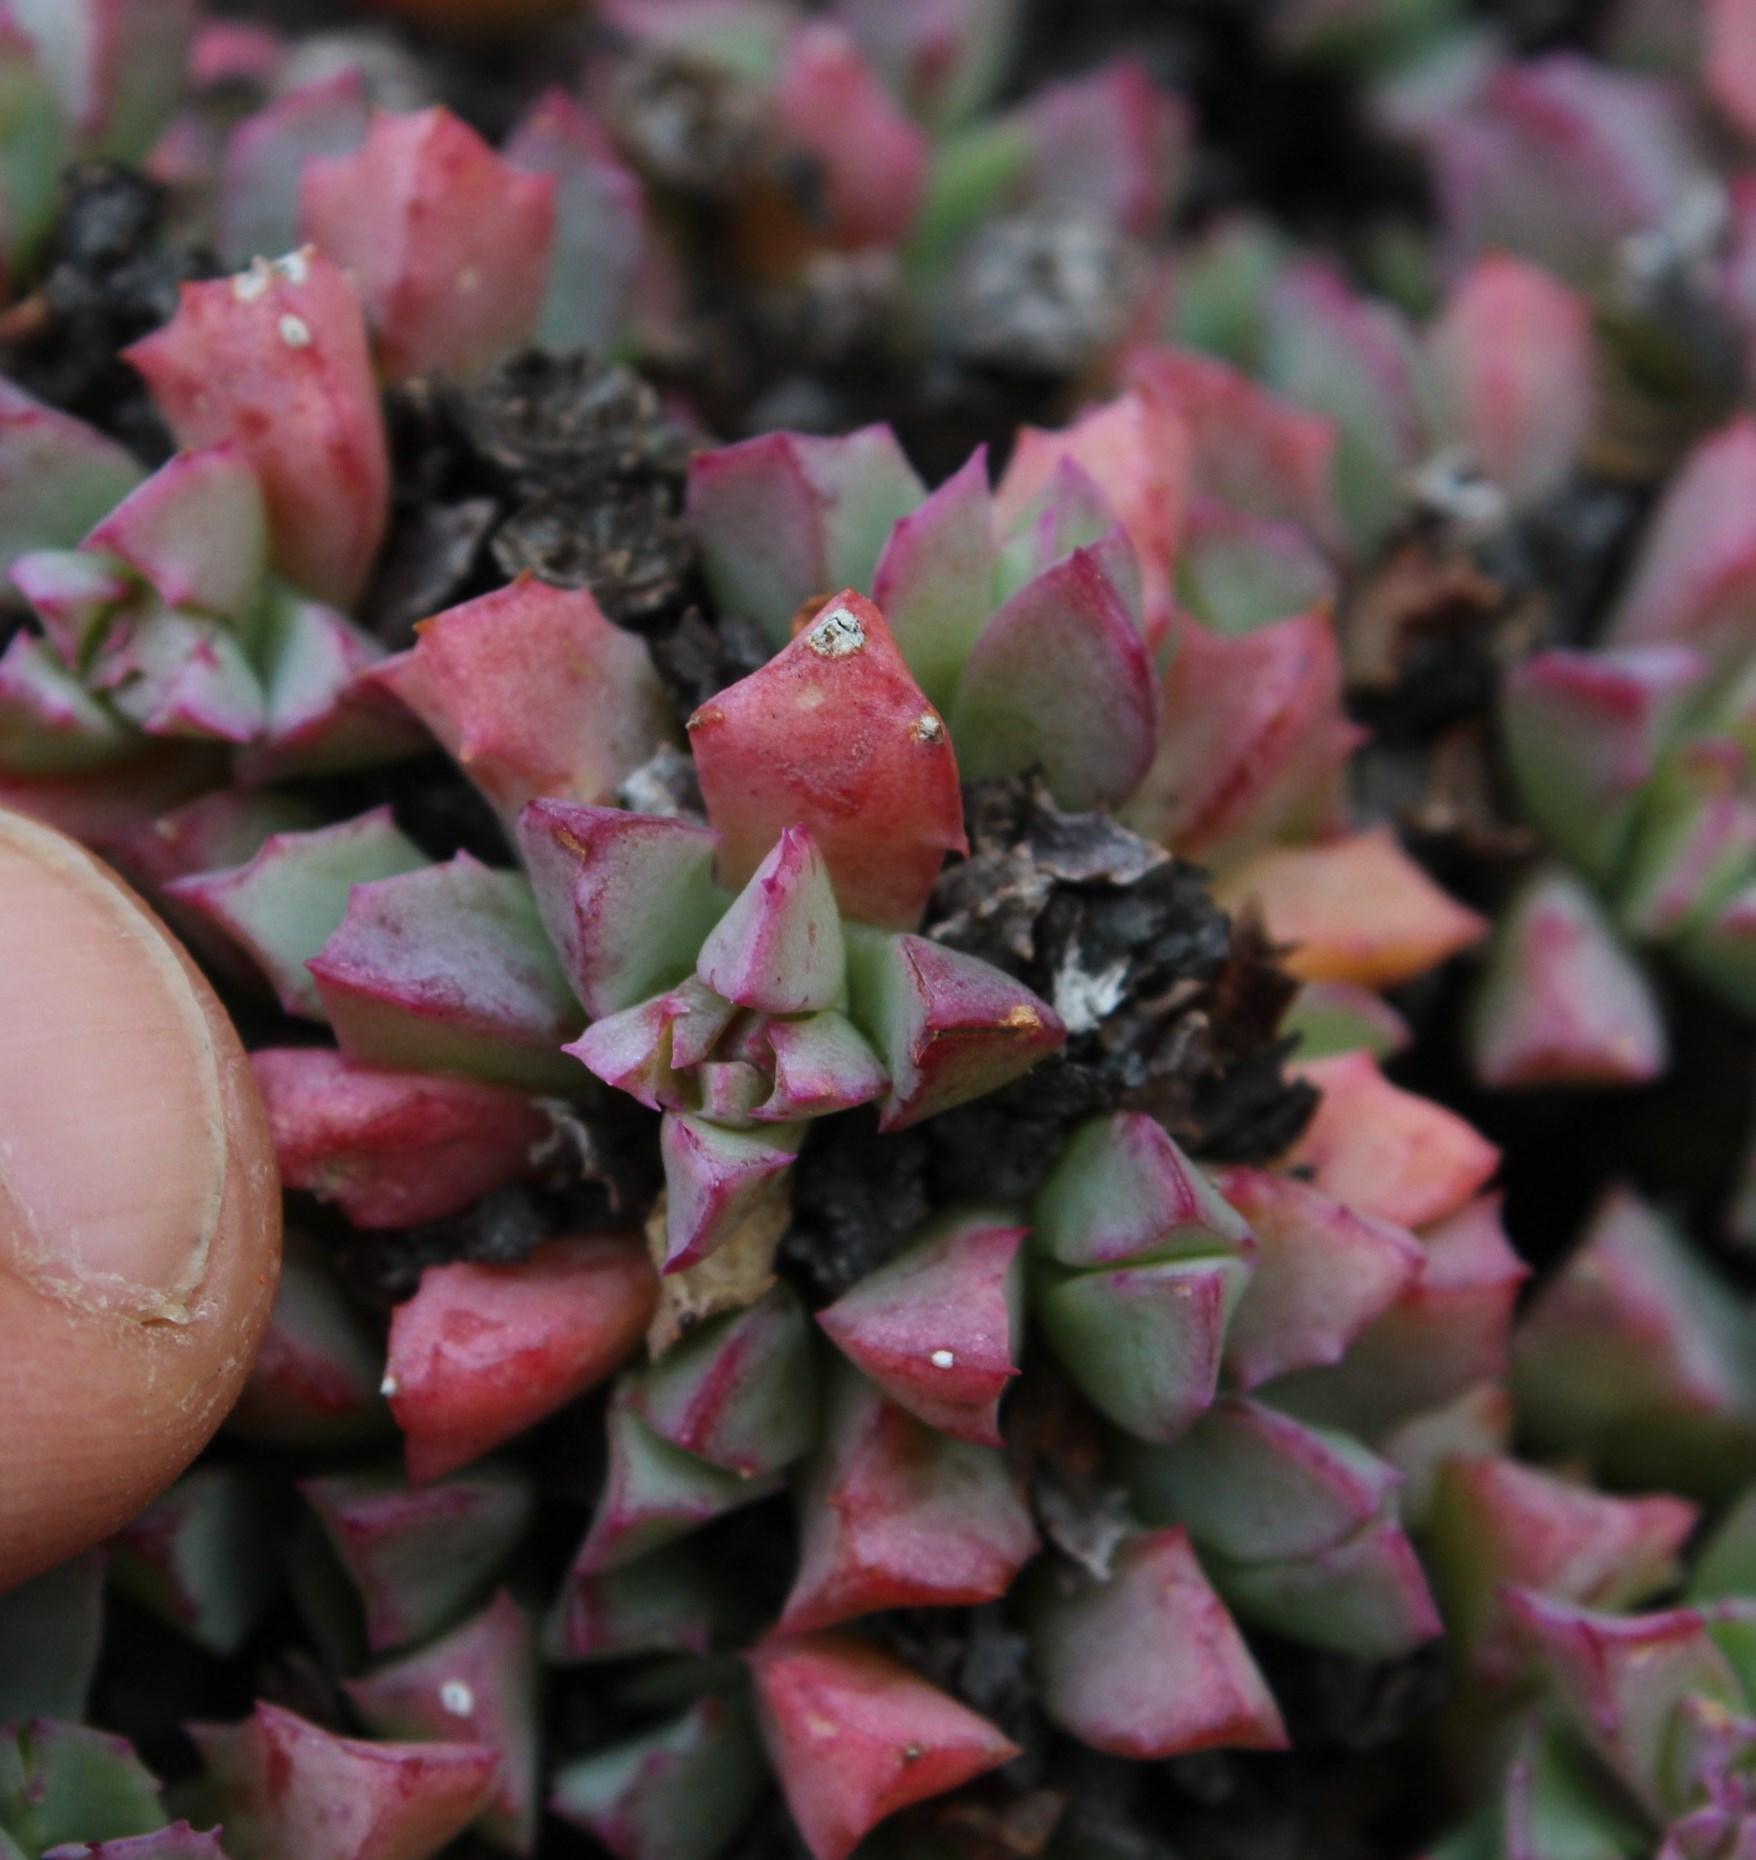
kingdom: Plantae
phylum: Tracheophyta
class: Magnoliopsida
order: Caryophyllales
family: Aizoaceae
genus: Oscularia
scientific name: Oscularia deltoides
